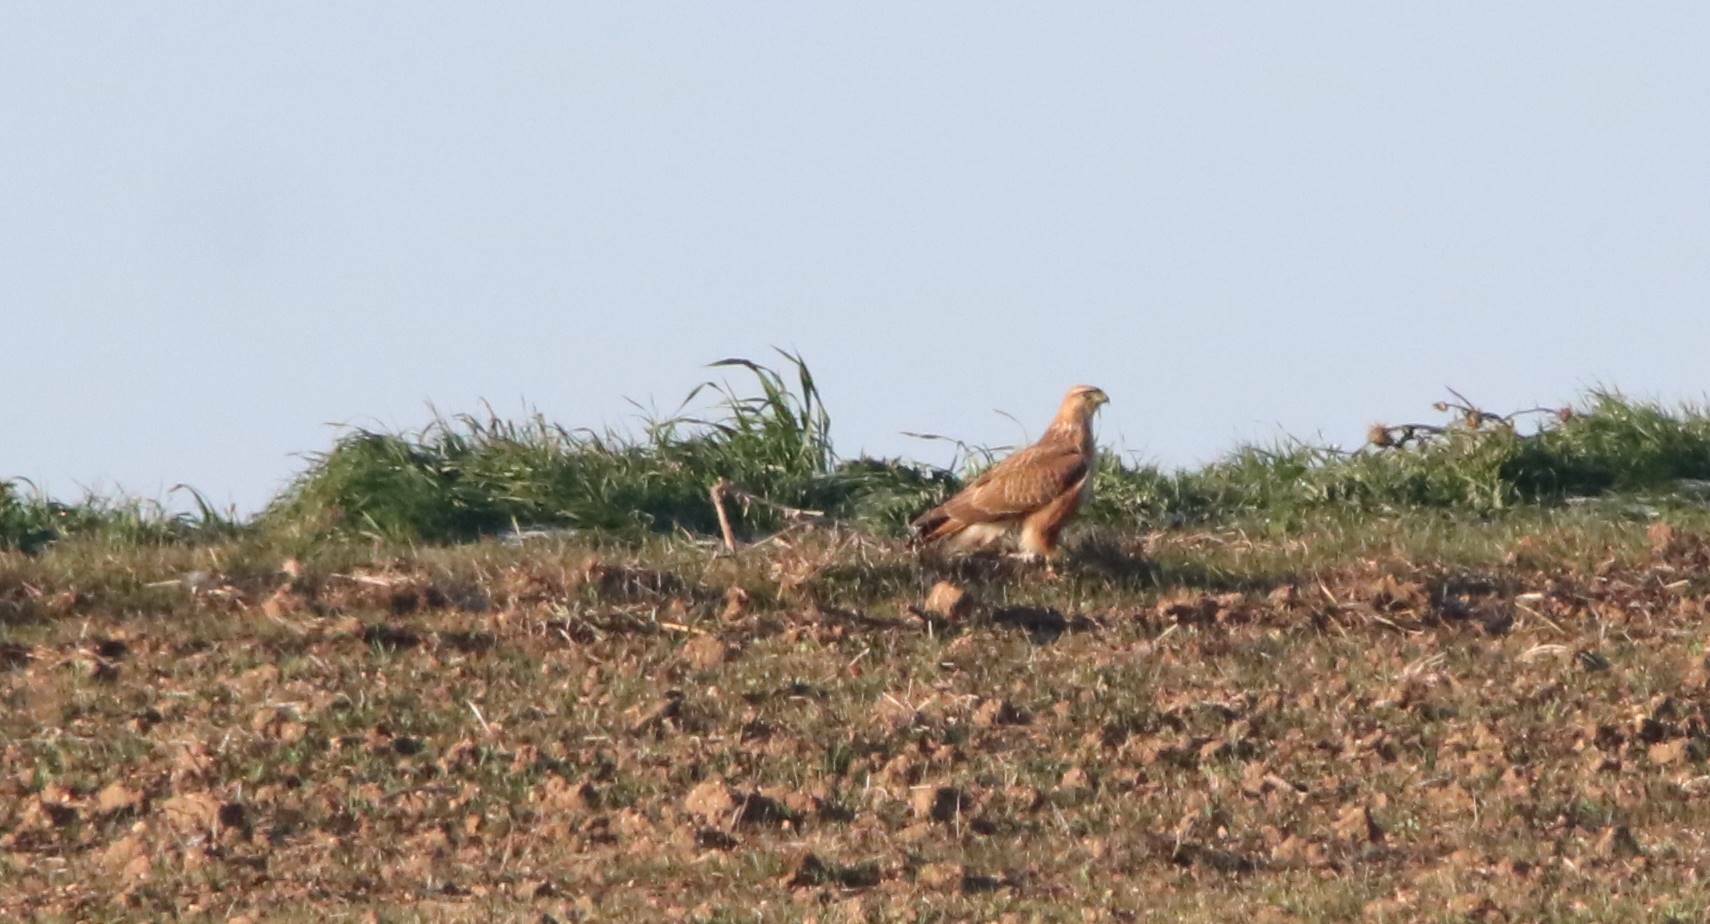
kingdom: Animalia
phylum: Chordata
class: Aves
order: Accipitriformes
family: Accipitridae
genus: Buteo
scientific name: Buteo rufinus
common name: Long-legged buzzard
